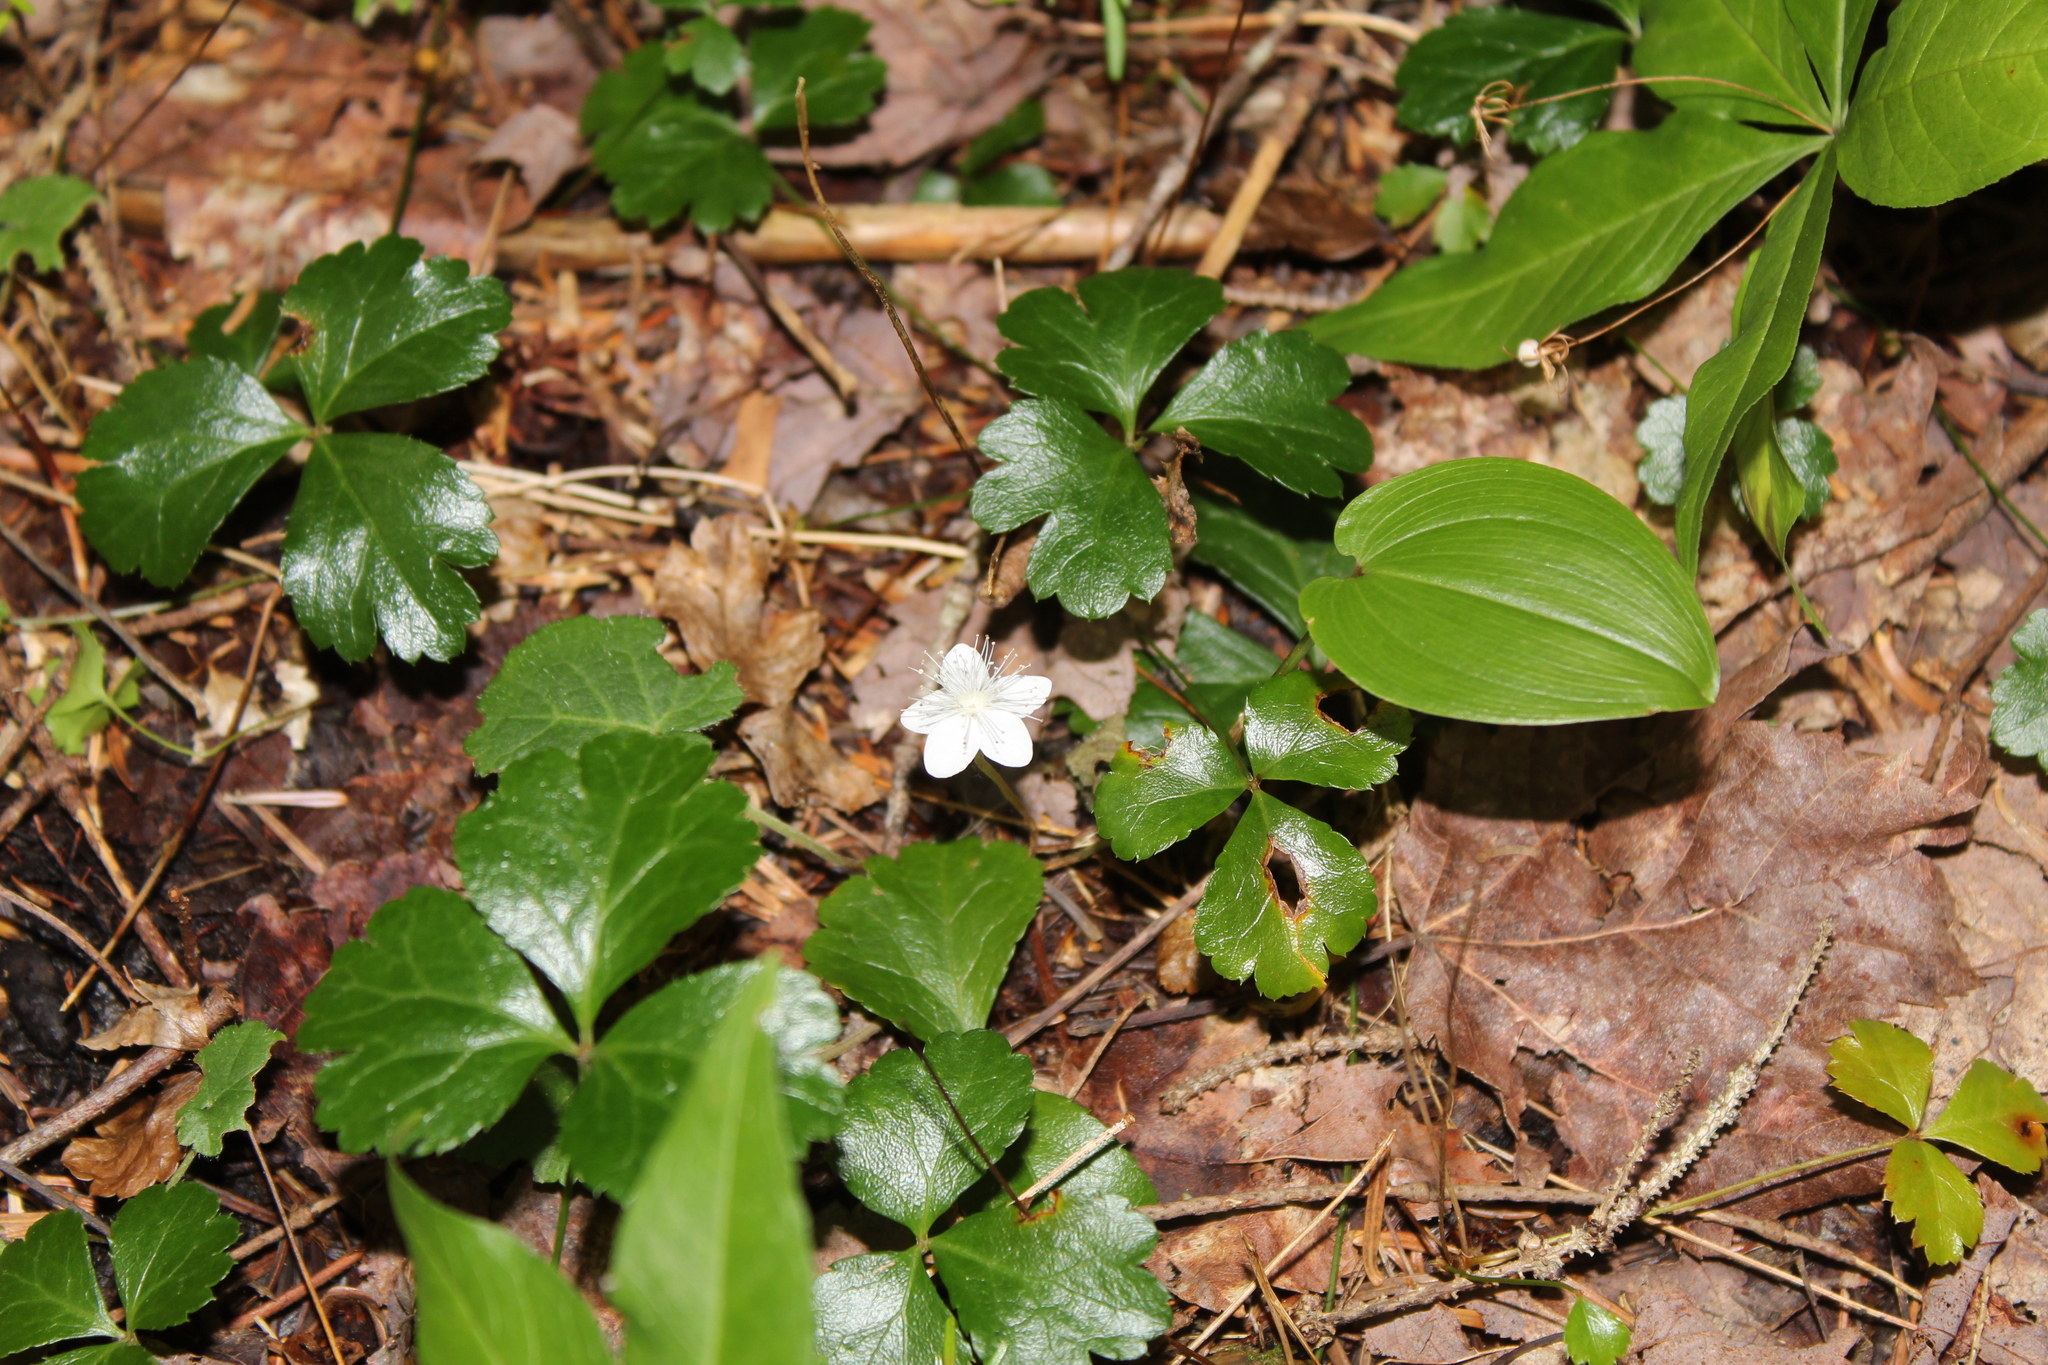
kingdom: Plantae
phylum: Tracheophyta
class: Magnoliopsida
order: Ranunculales
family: Ranunculaceae
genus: Coptis
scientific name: Coptis trifolia
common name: Canker-root
